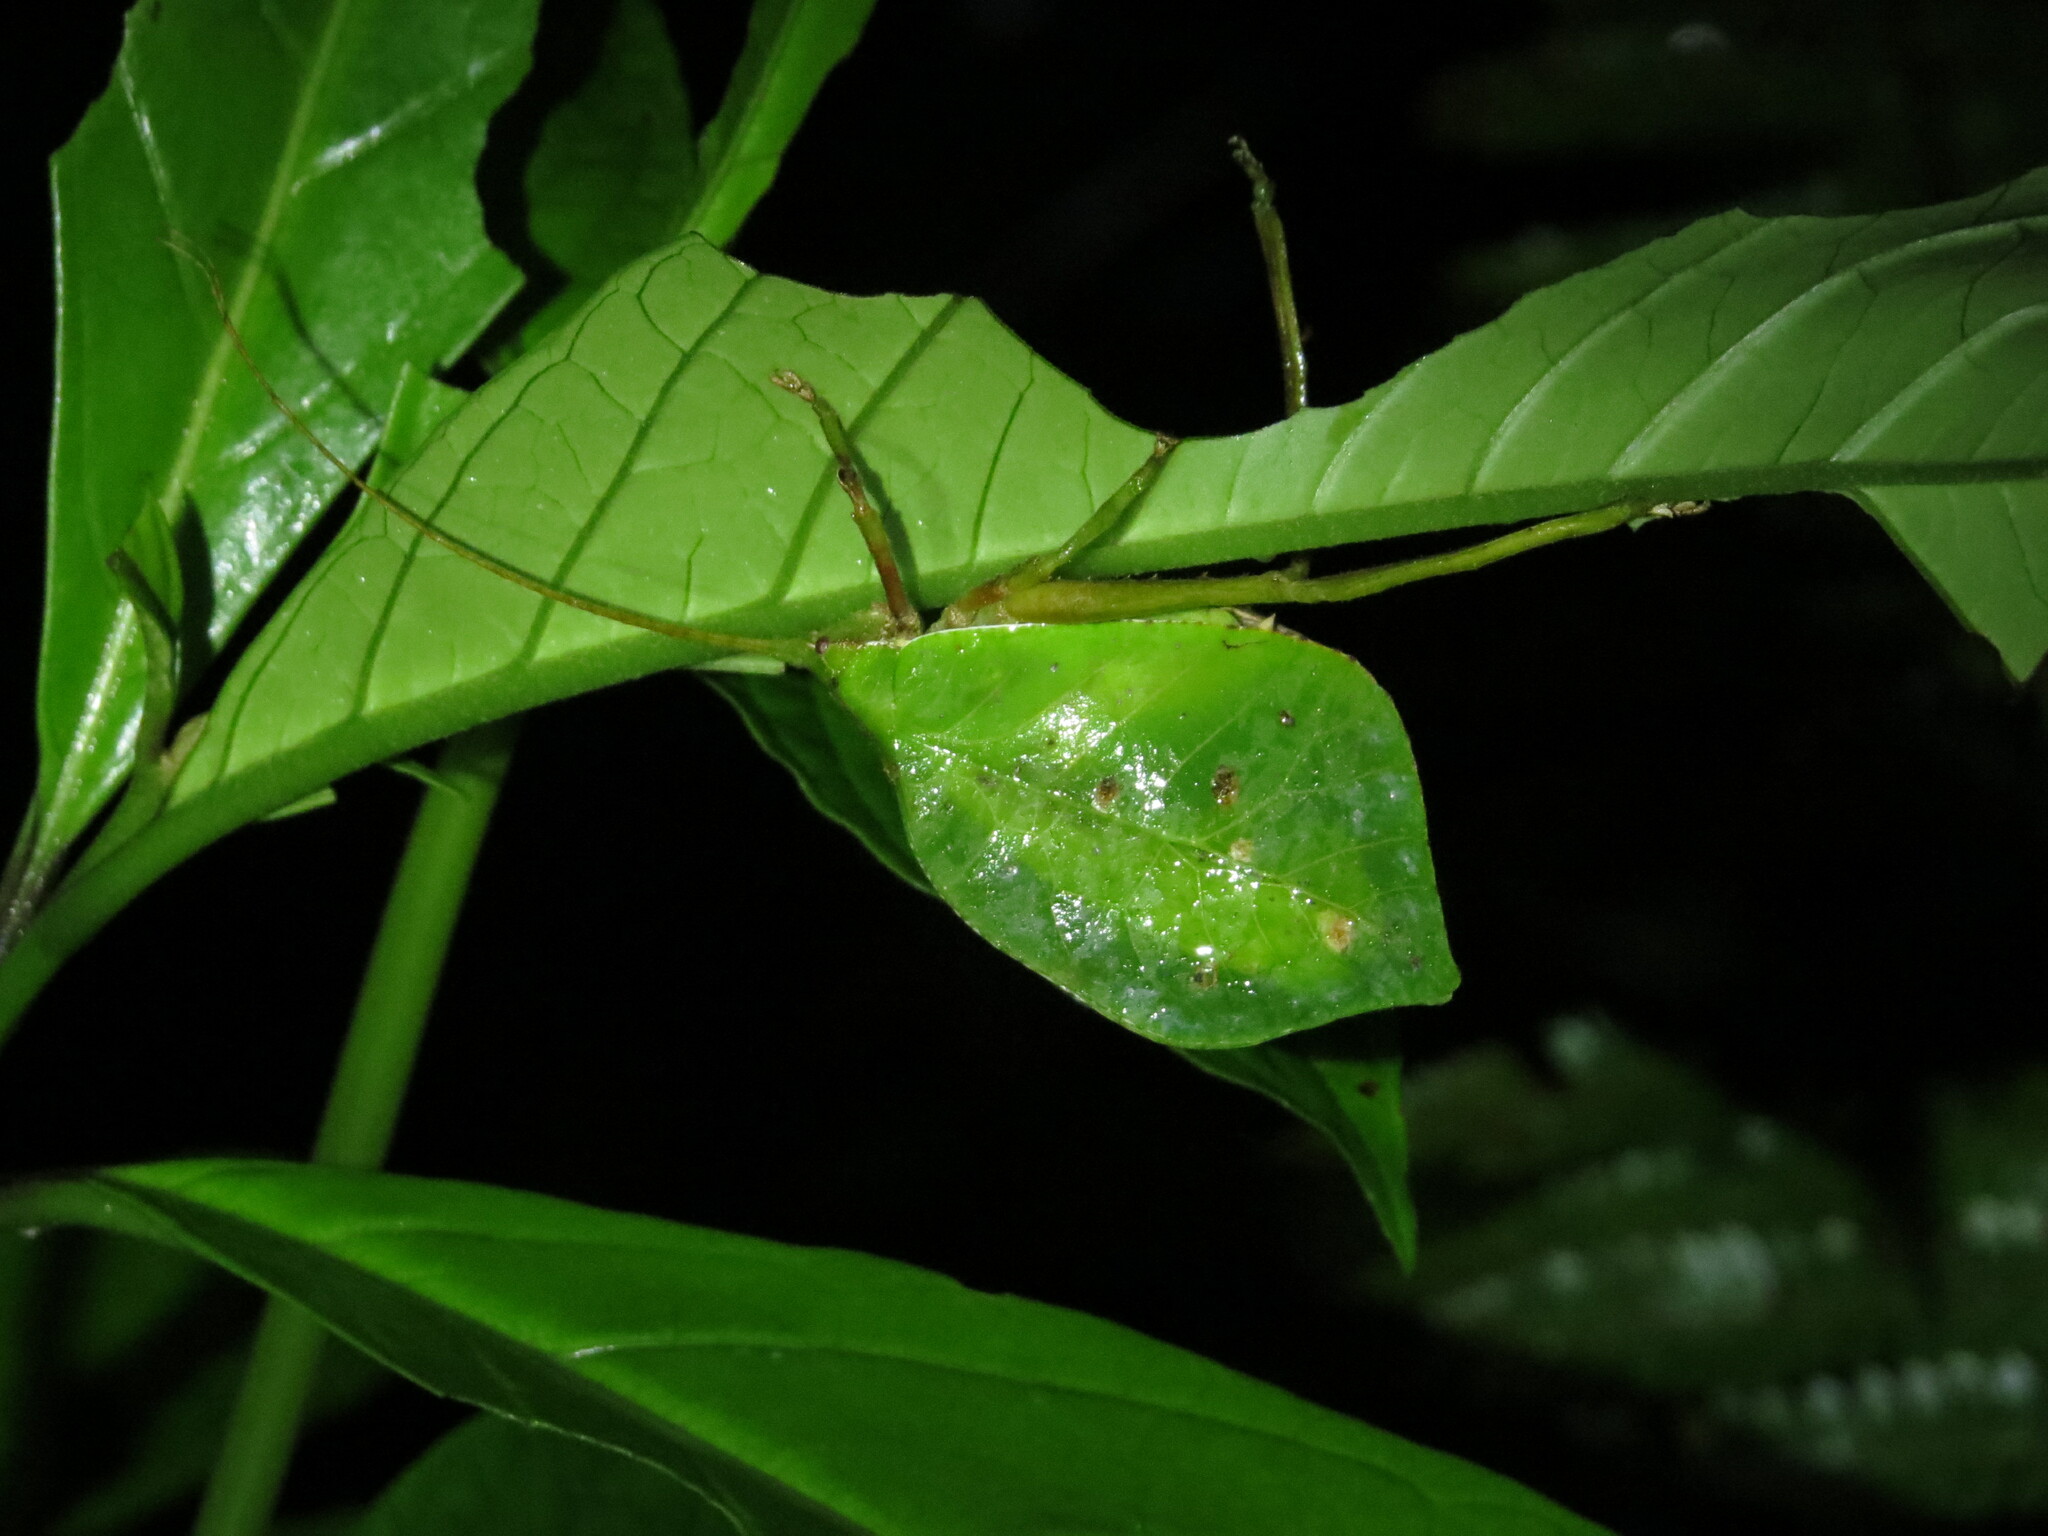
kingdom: Animalia
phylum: Arthropoda
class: Insecta
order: Orthoptera
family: Tettigoniidae
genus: Mimetica
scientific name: Mimetica incisa
